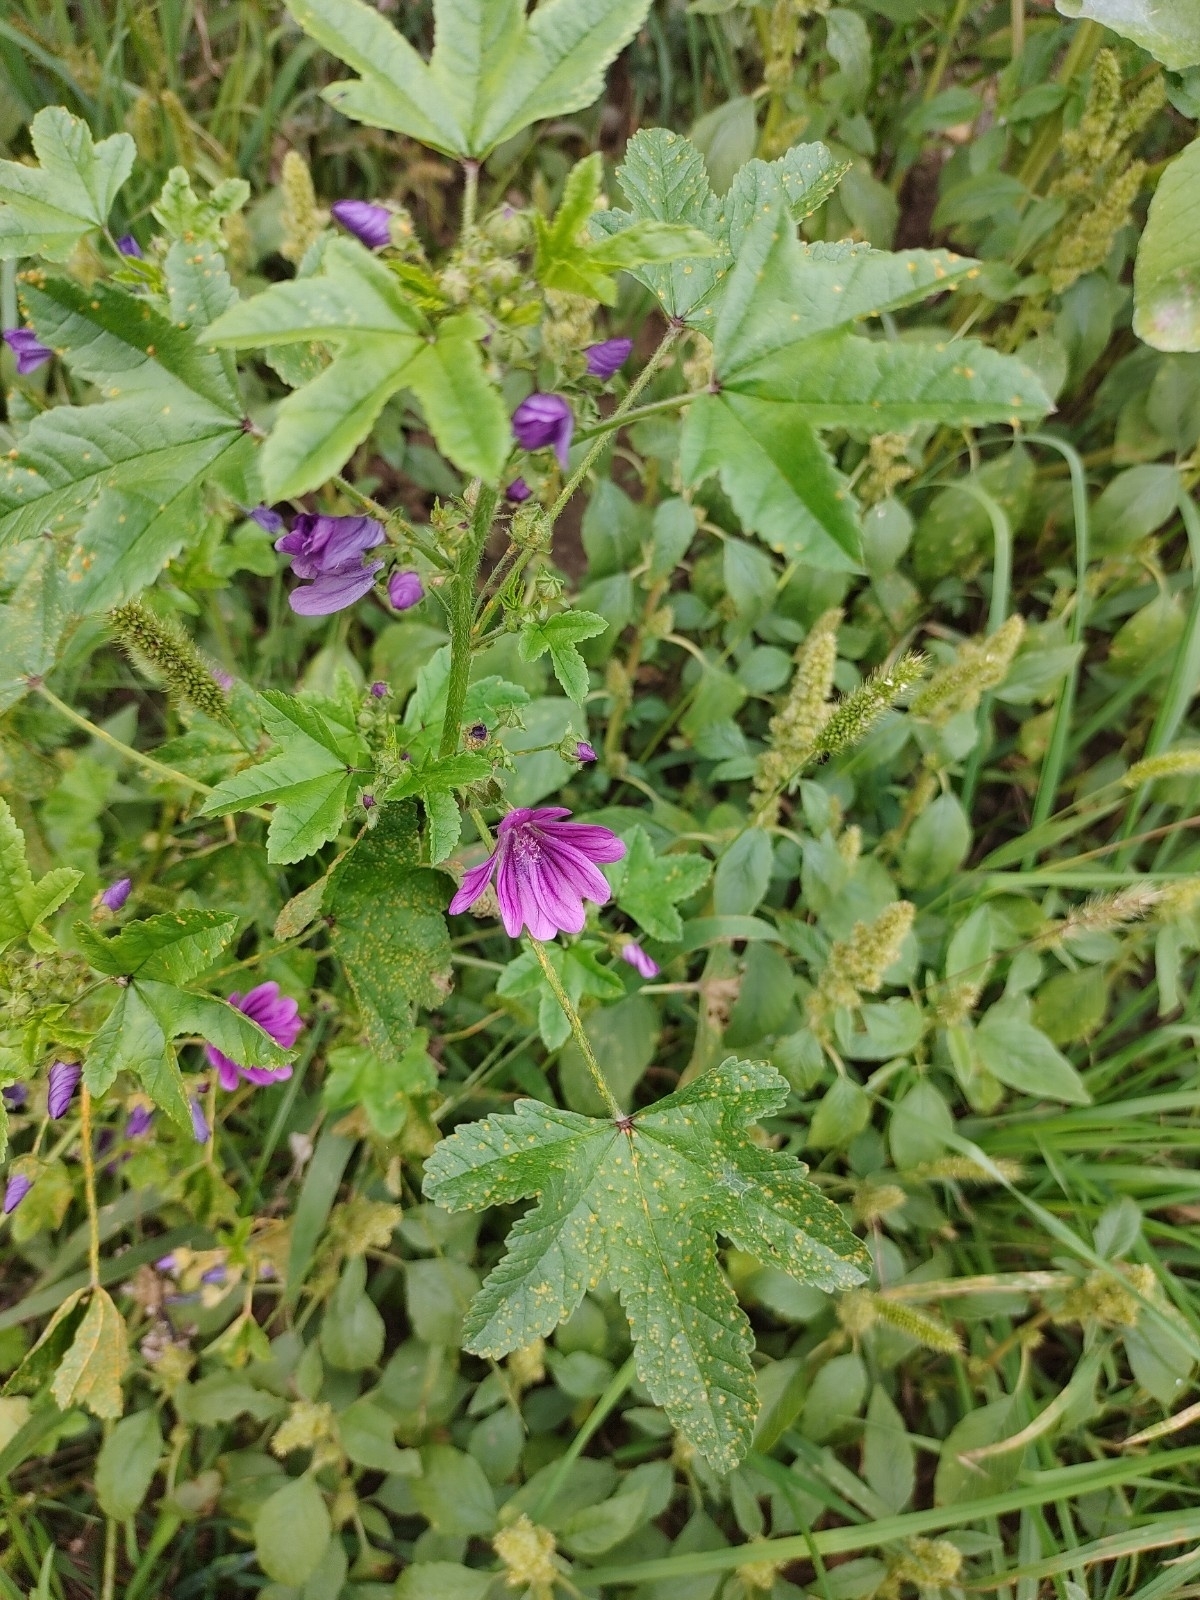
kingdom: Plantae
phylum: Tracheophyta
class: Magnoliopsida
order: Malvales
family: Malvaceae
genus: Malva
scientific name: Malva sylvestris
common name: Common mallow
